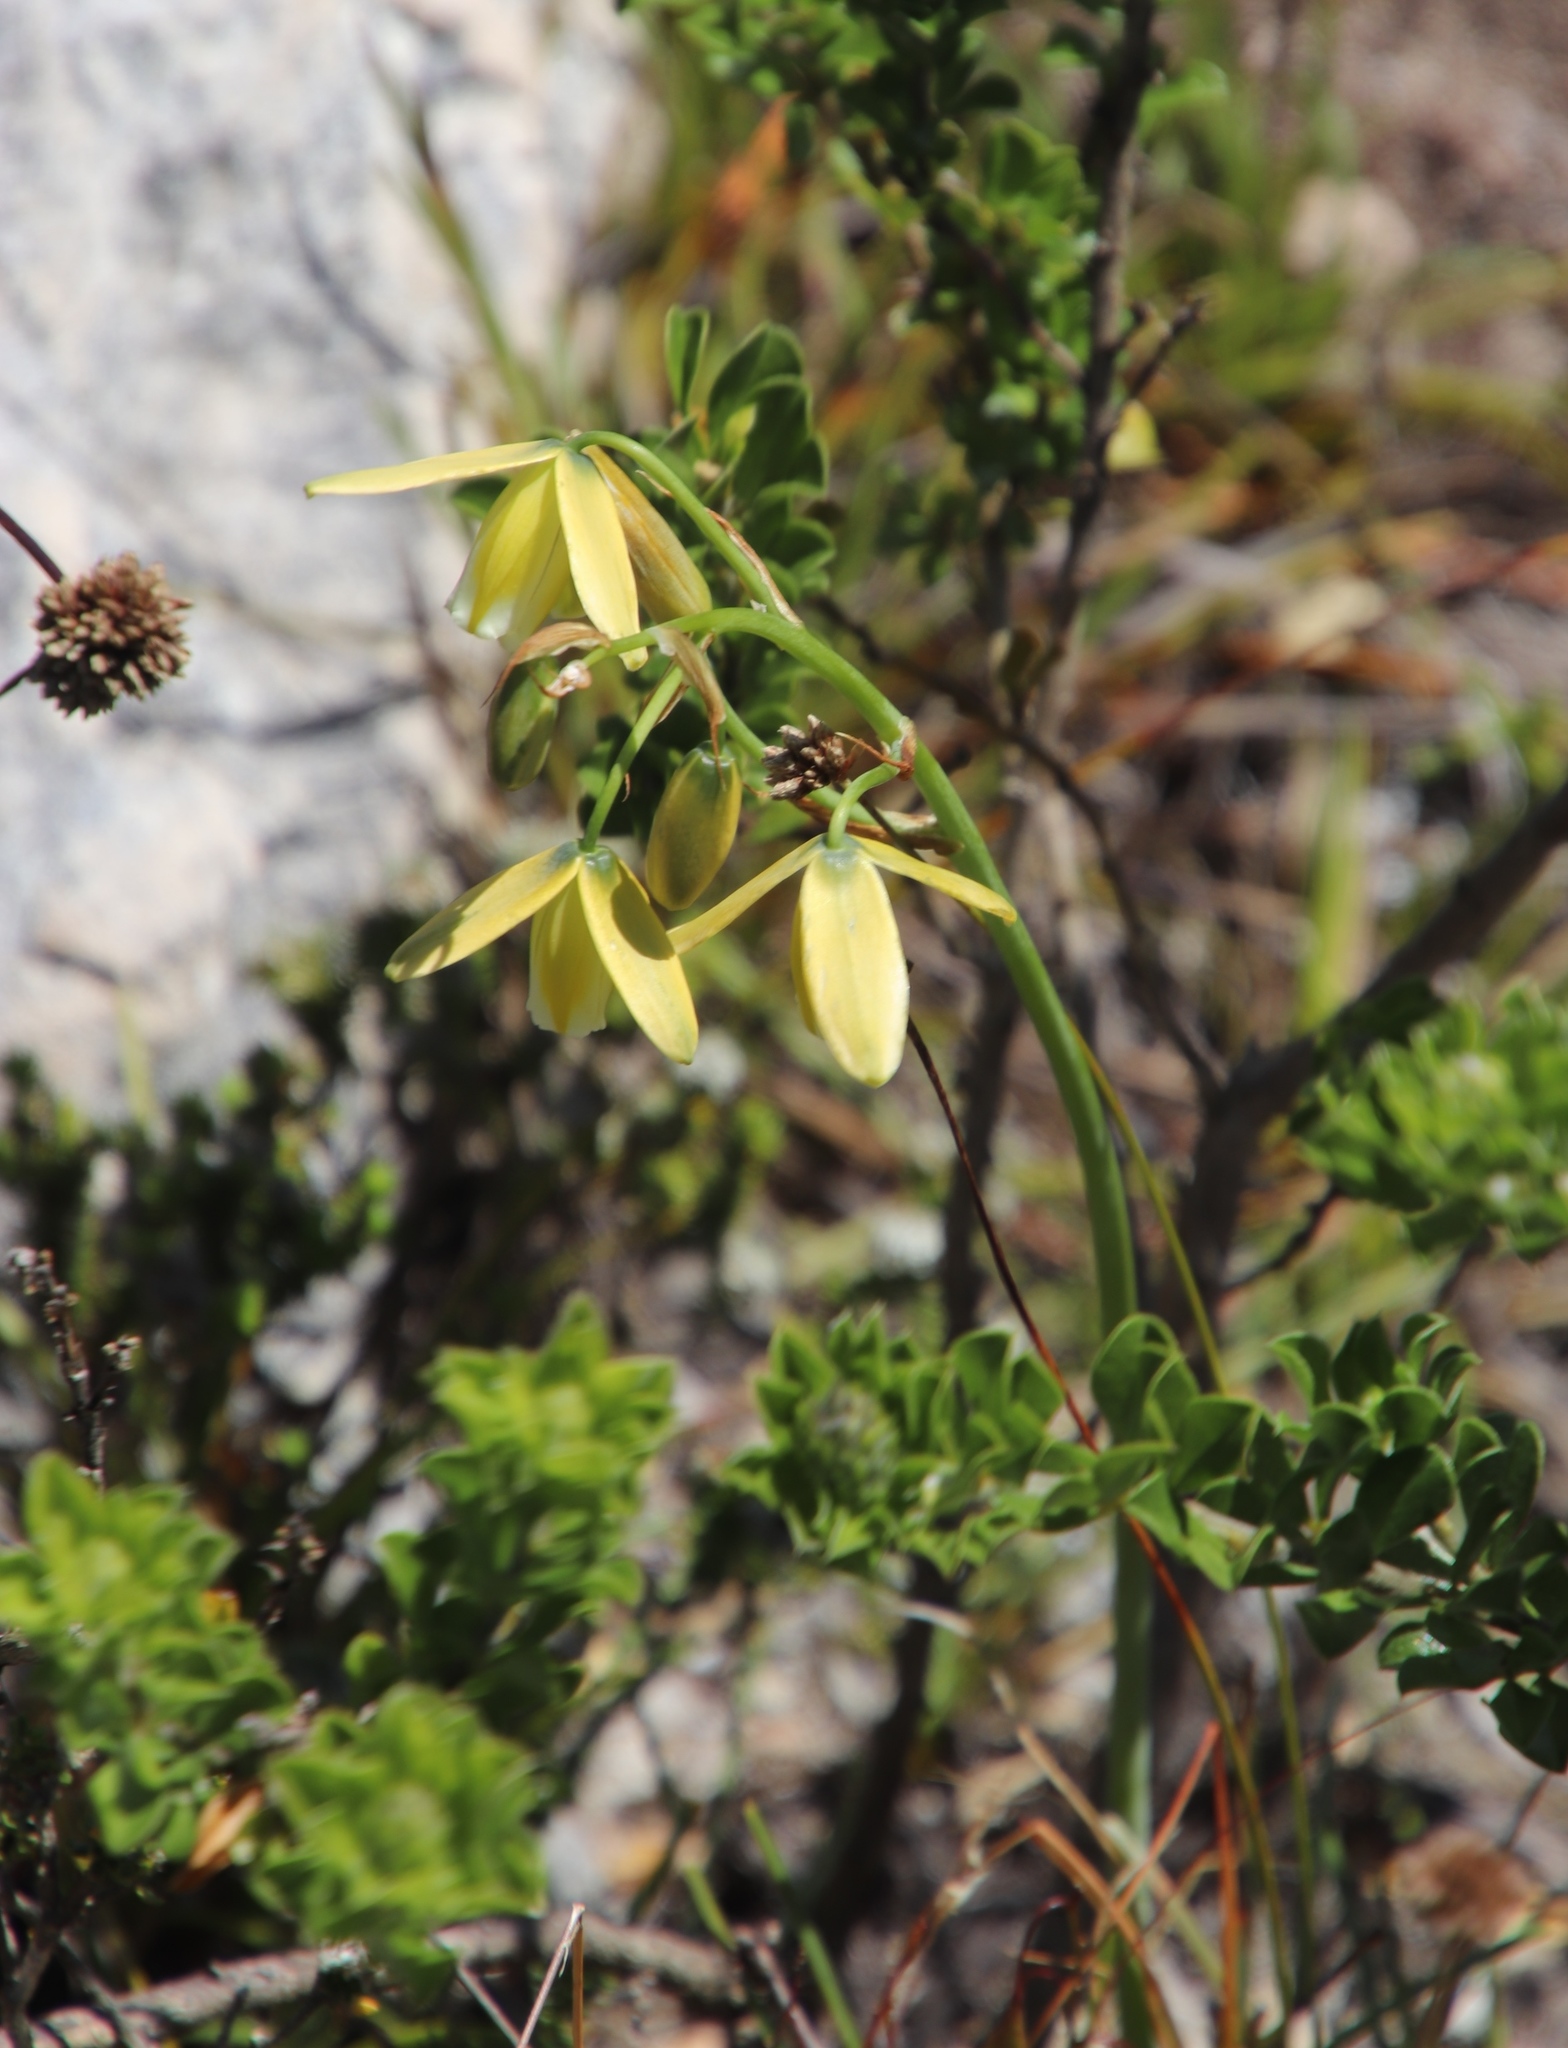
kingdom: Plantae
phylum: Tracheophyta
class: Liliopsida
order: Asparagales
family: Asparagaceae
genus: Albuca
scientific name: Albuca cooperi
